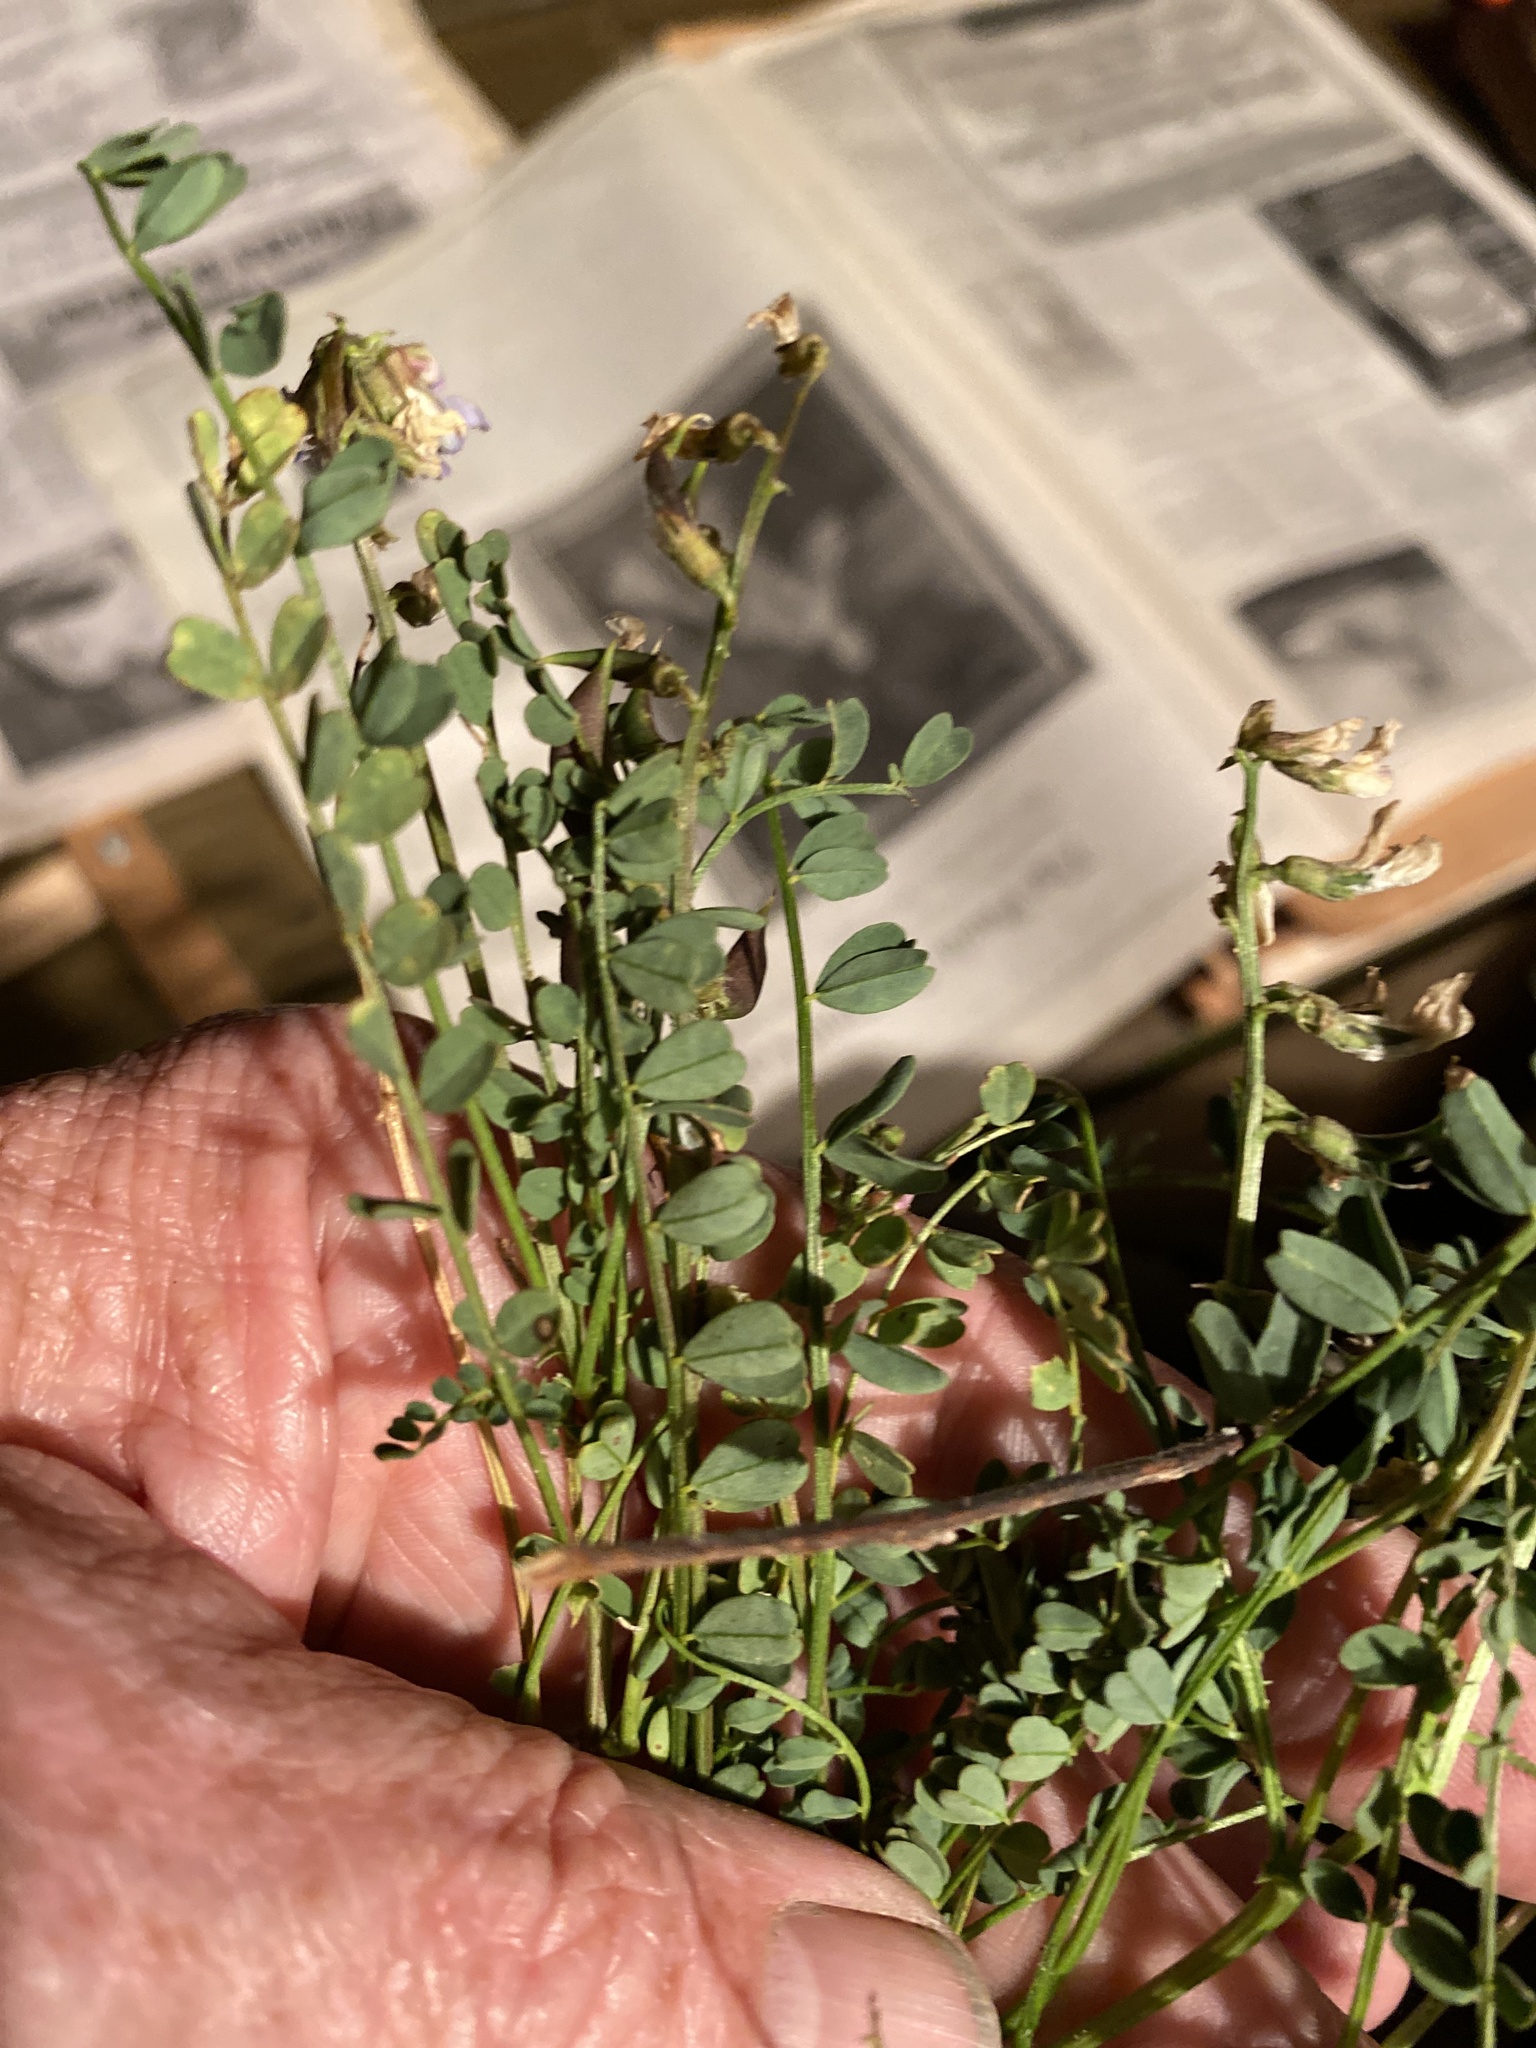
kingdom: Plantae
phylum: Tracheophyta
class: Magnoliopsida
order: Fabales
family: Fabaceae
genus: Astragalus
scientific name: Astragalus obcordatus
